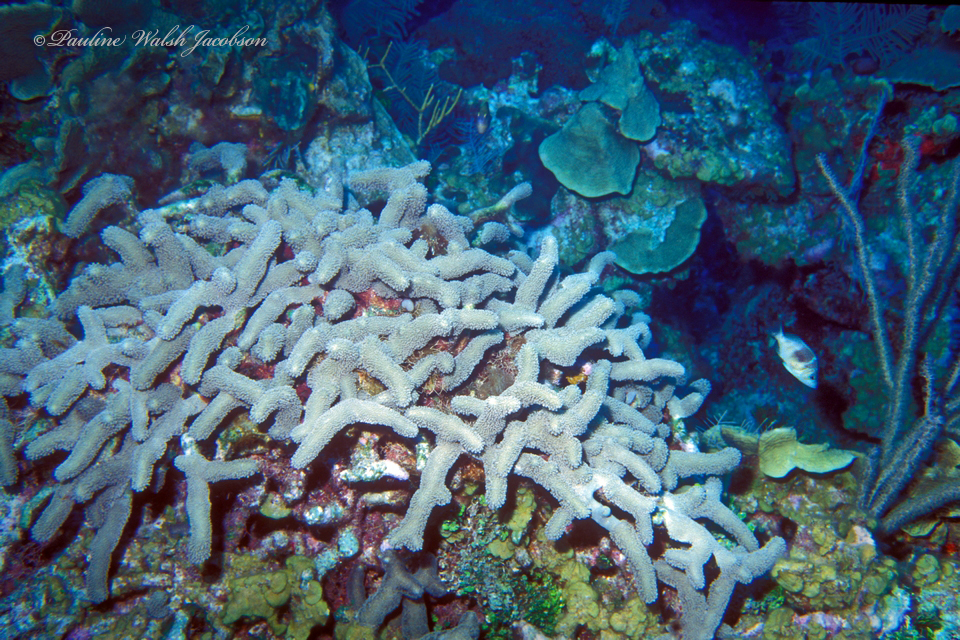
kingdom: Animalia
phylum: Cnidaria
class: Anthozoa
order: Scleractinia
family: Poritidae
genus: Porites
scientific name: Porites porites
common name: Finger coral
